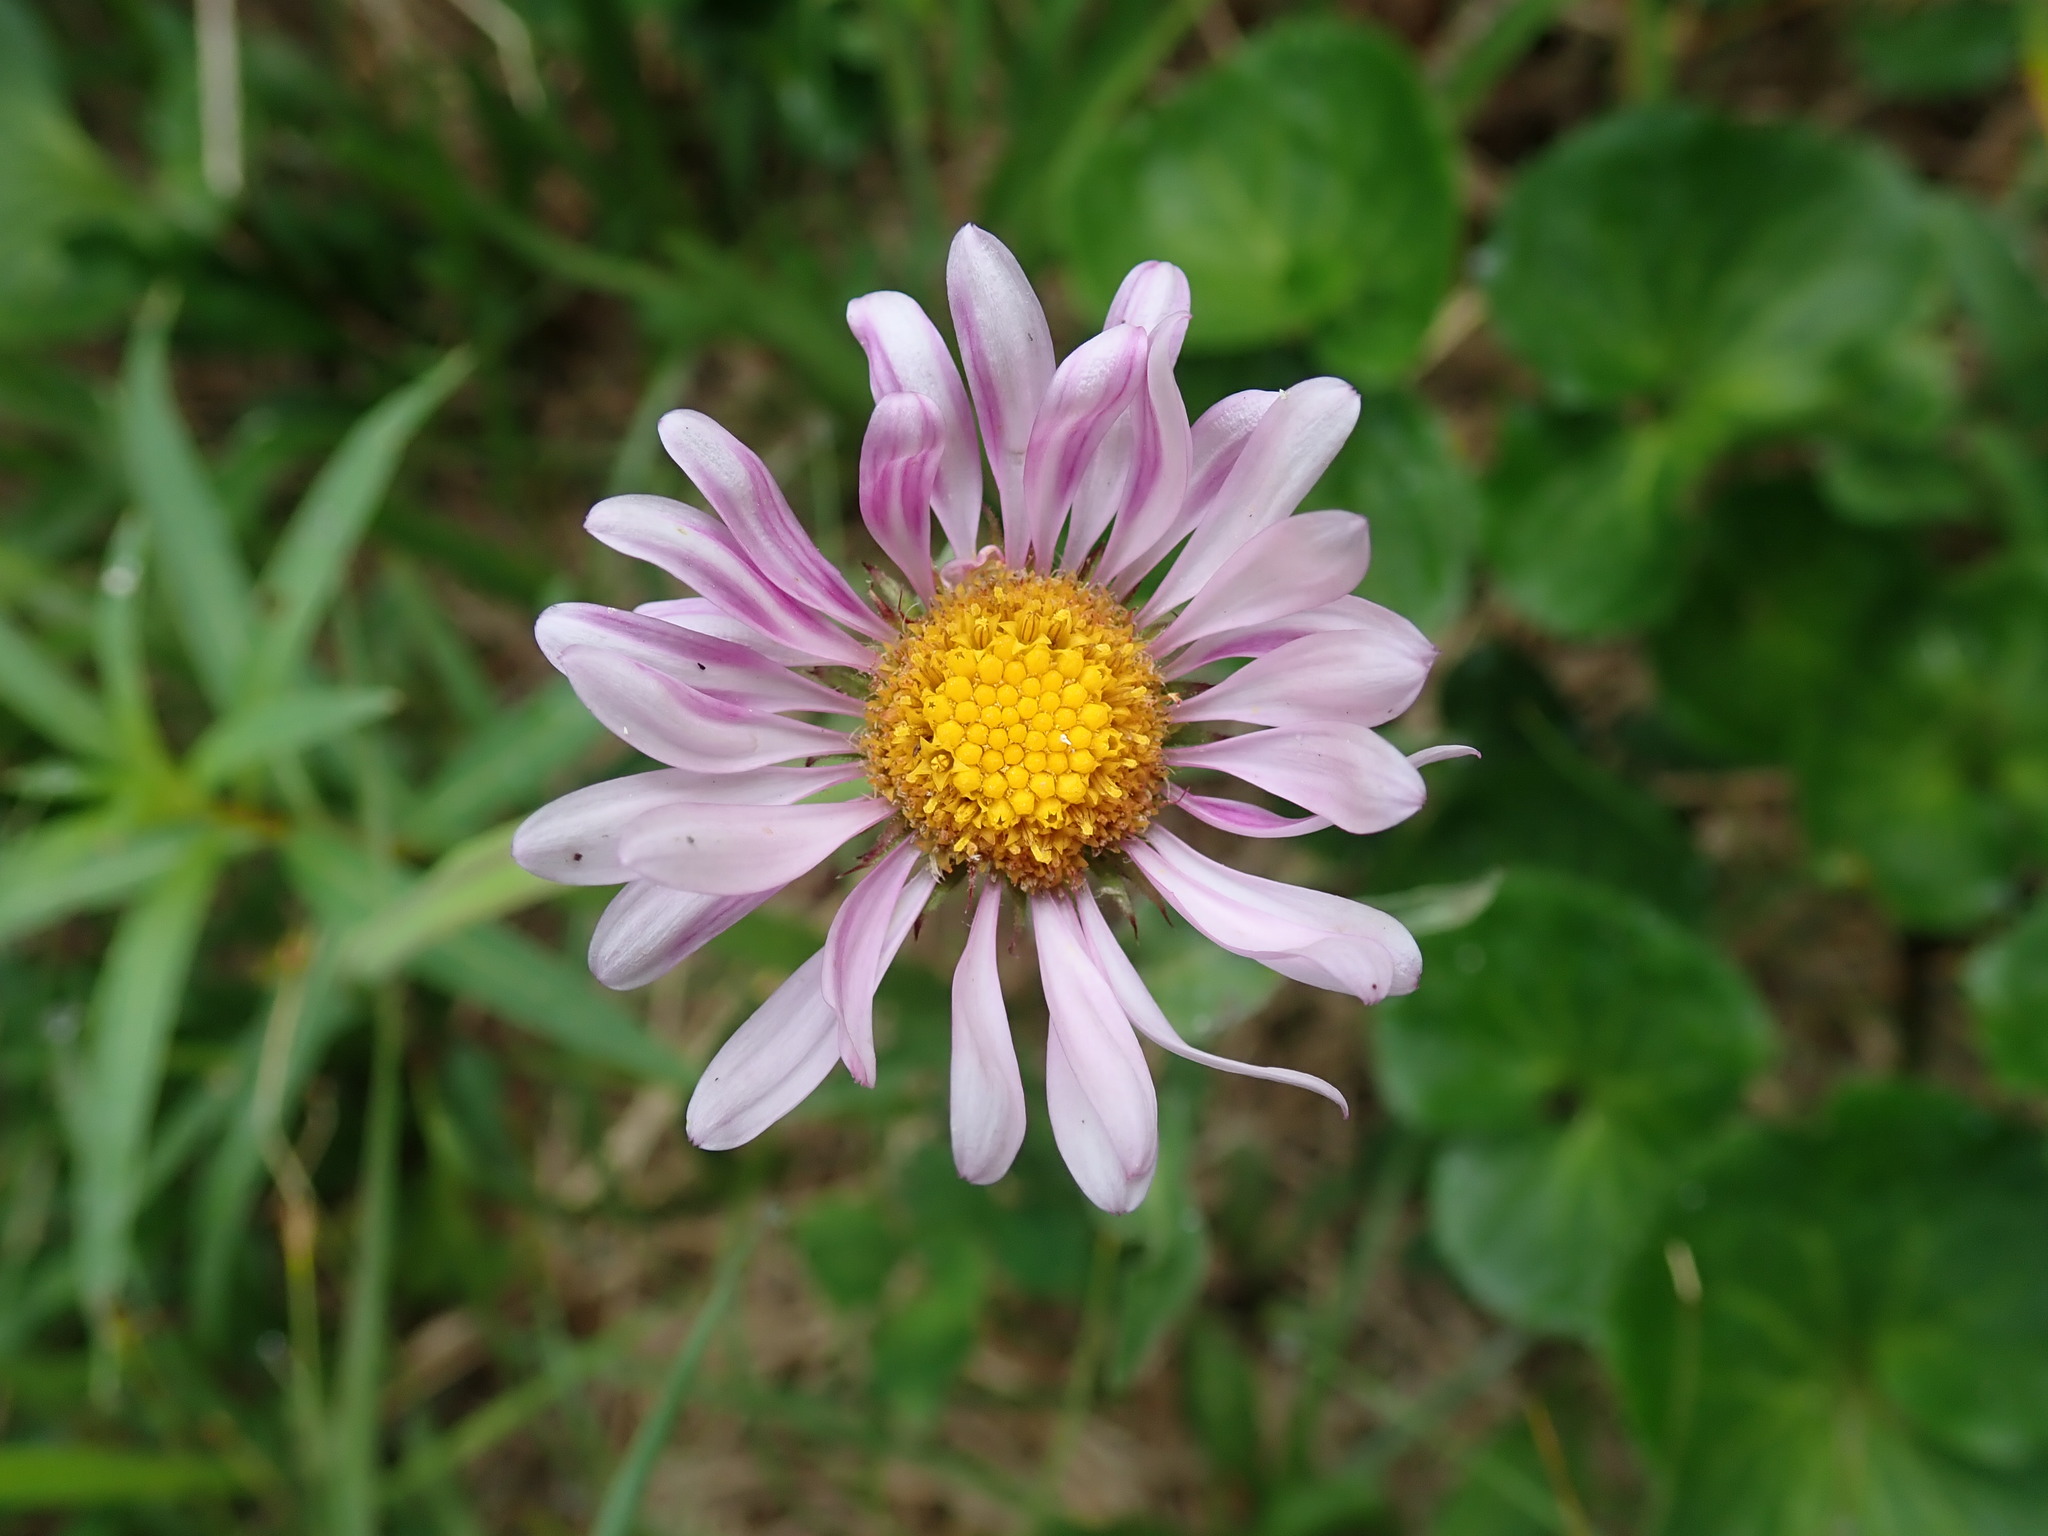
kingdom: Plantae
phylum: Tracheophyta
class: Magnoliopsida
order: Asterales
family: Asteraceae
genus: Erigeron
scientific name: Erigeron glacialis
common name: Subalpine fleabane
